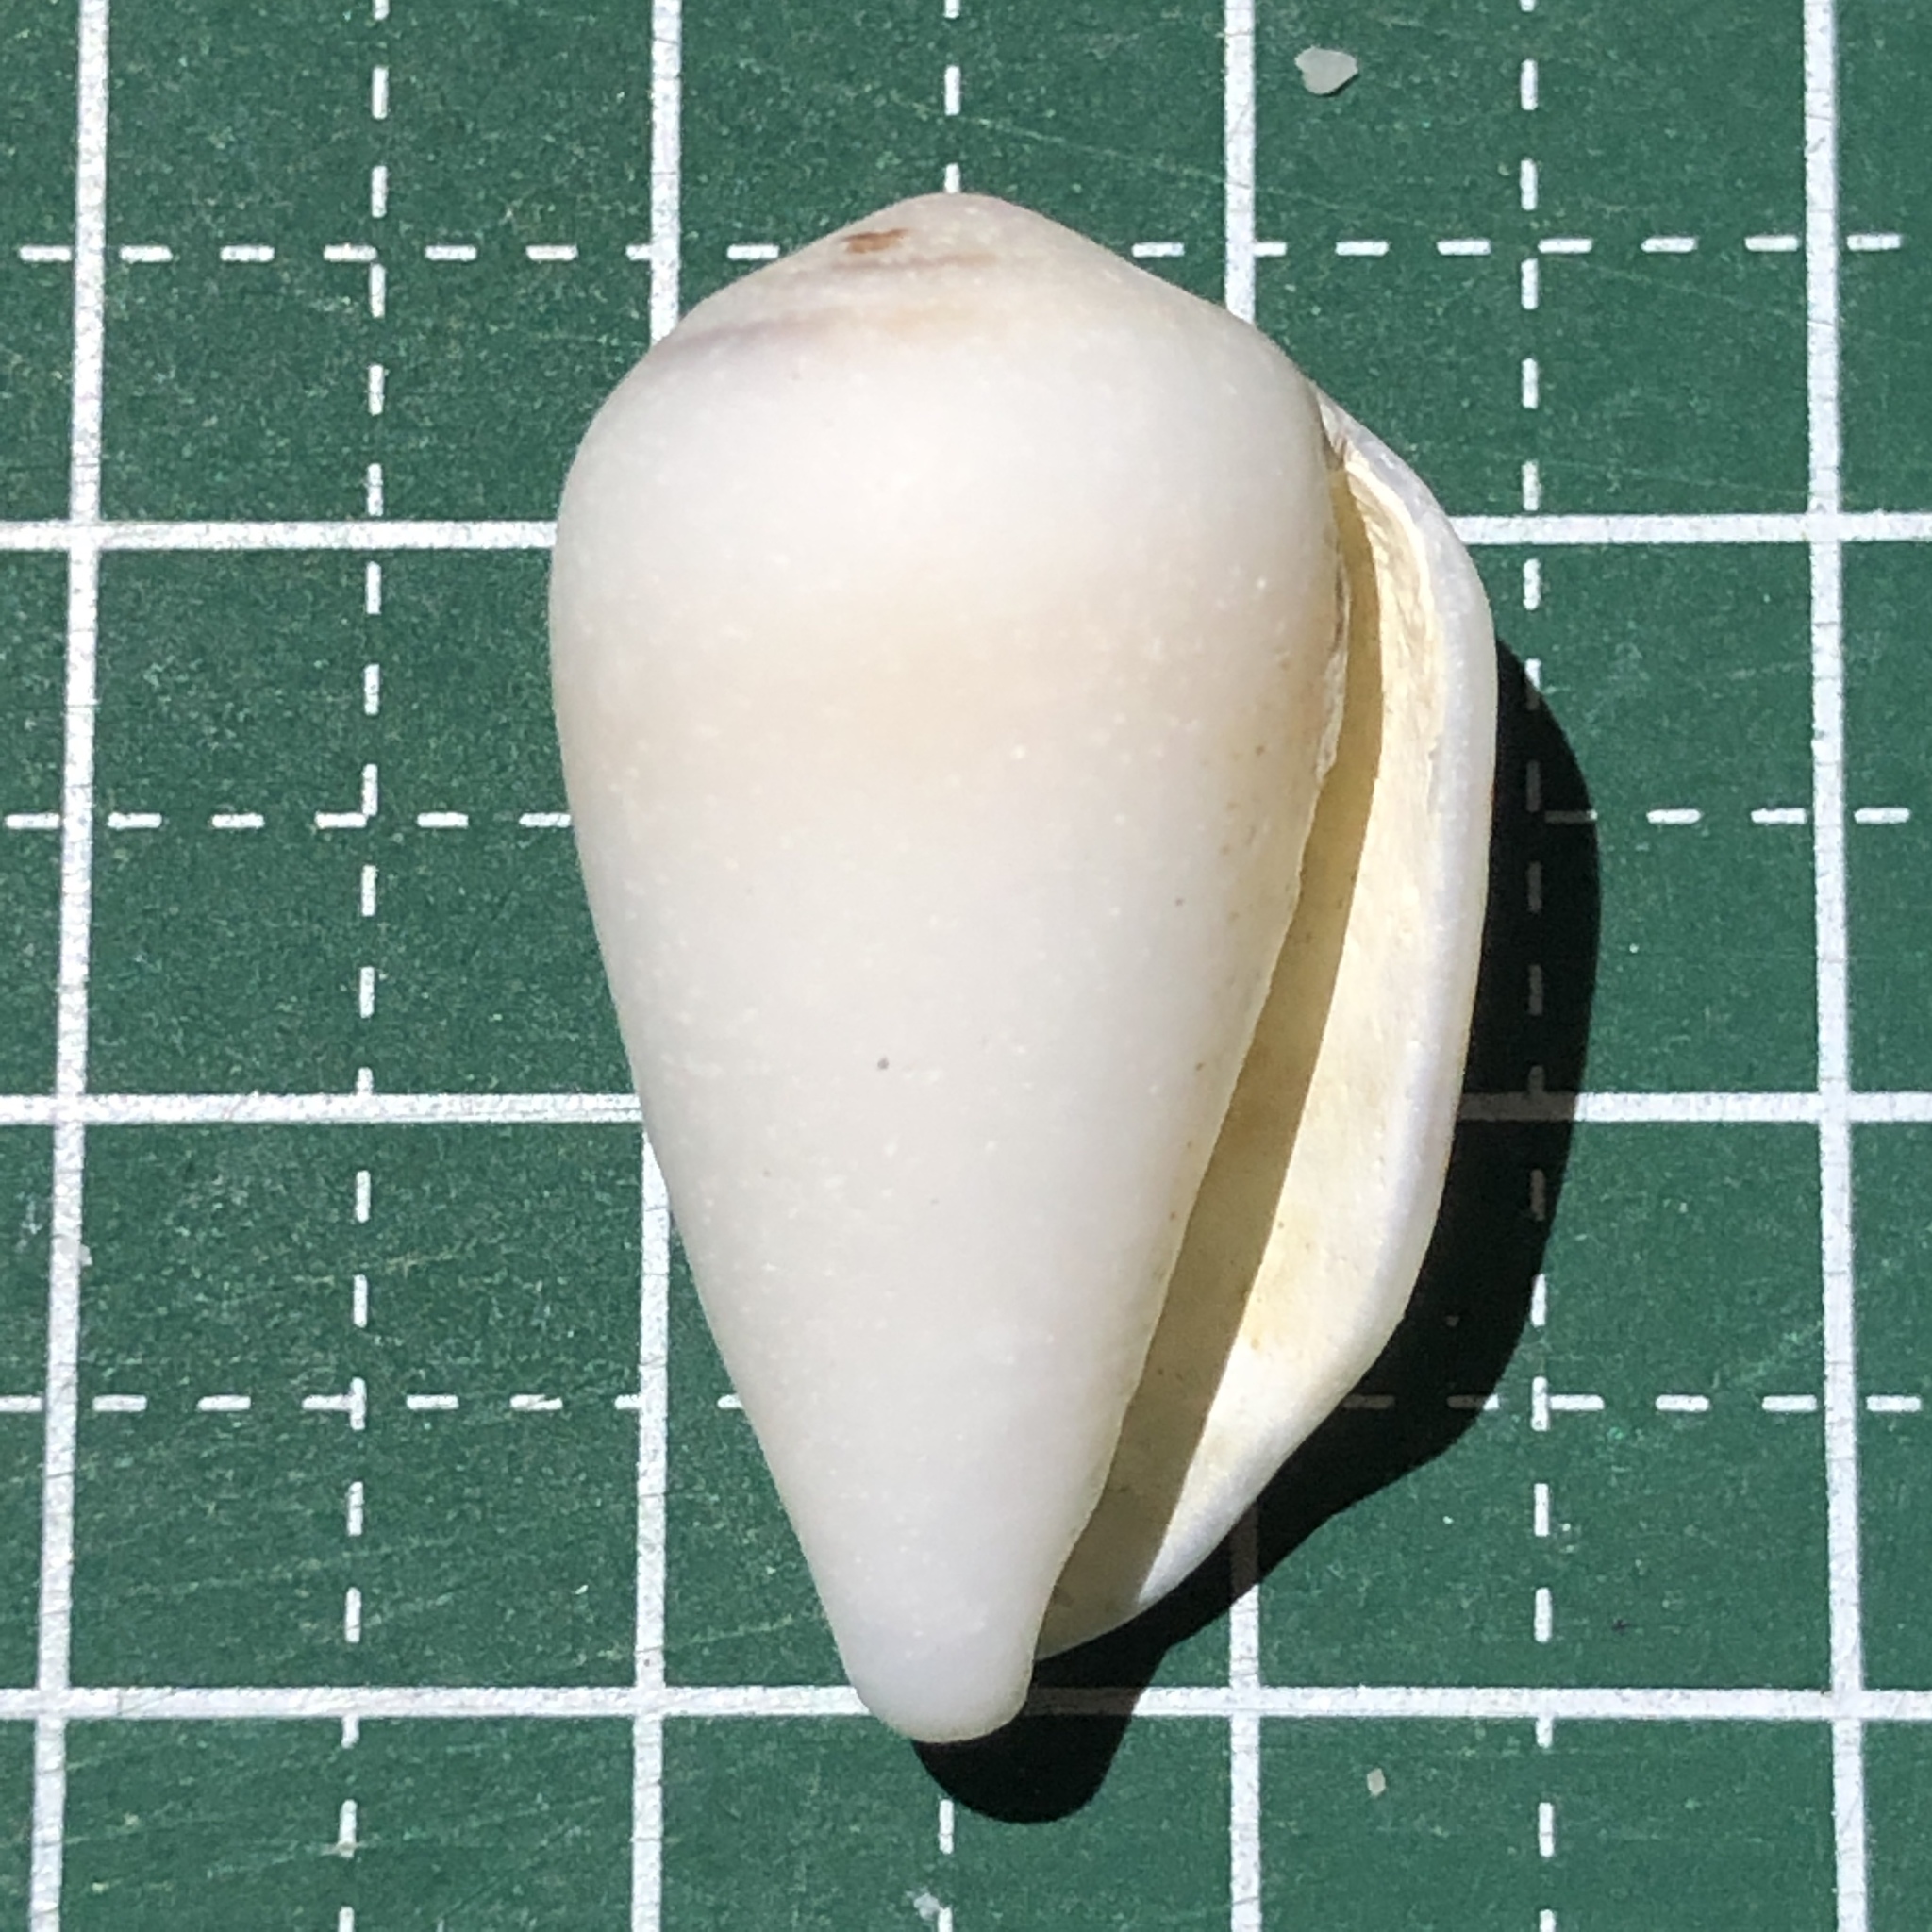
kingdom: Animalia
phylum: Mollusca
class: Gastropoda
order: Neogastropoda
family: Conidae
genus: Conus
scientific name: Conus striolatus
